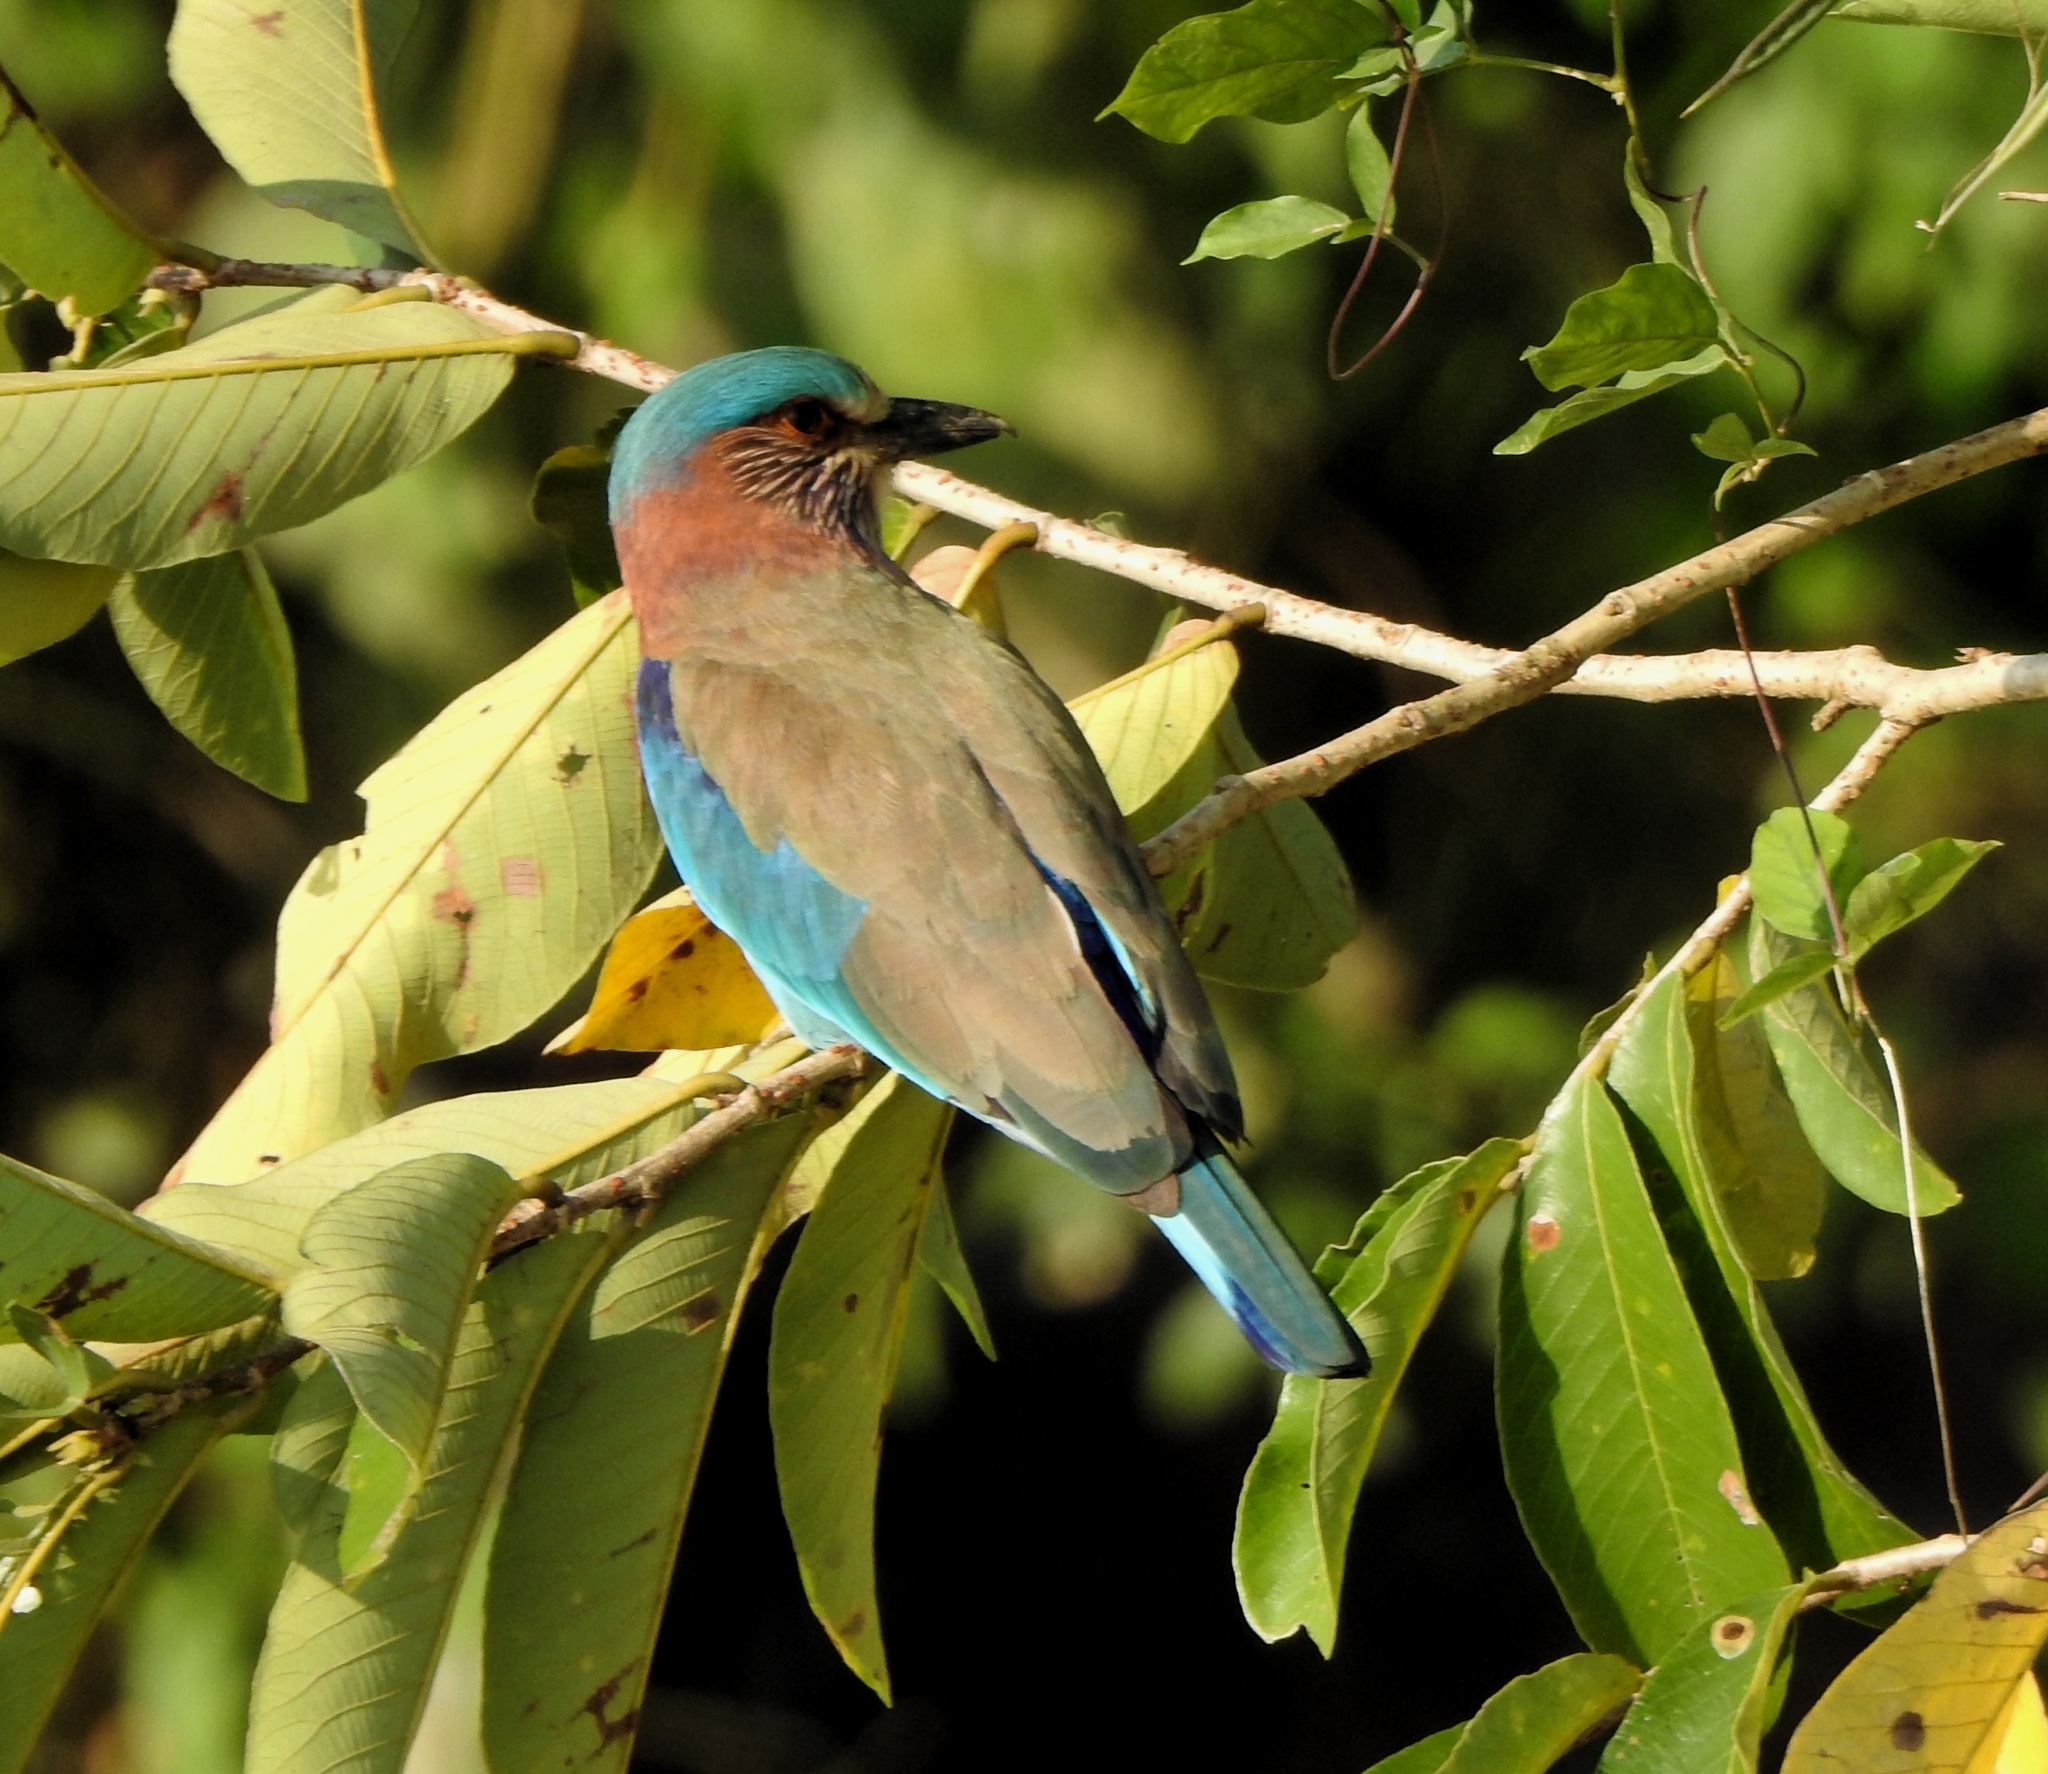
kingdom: Animalia
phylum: Chordata
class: Aves
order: Coraciiformes
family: Coraciidae
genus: Coracias
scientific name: Coracias benghalensis
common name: Indian roller
